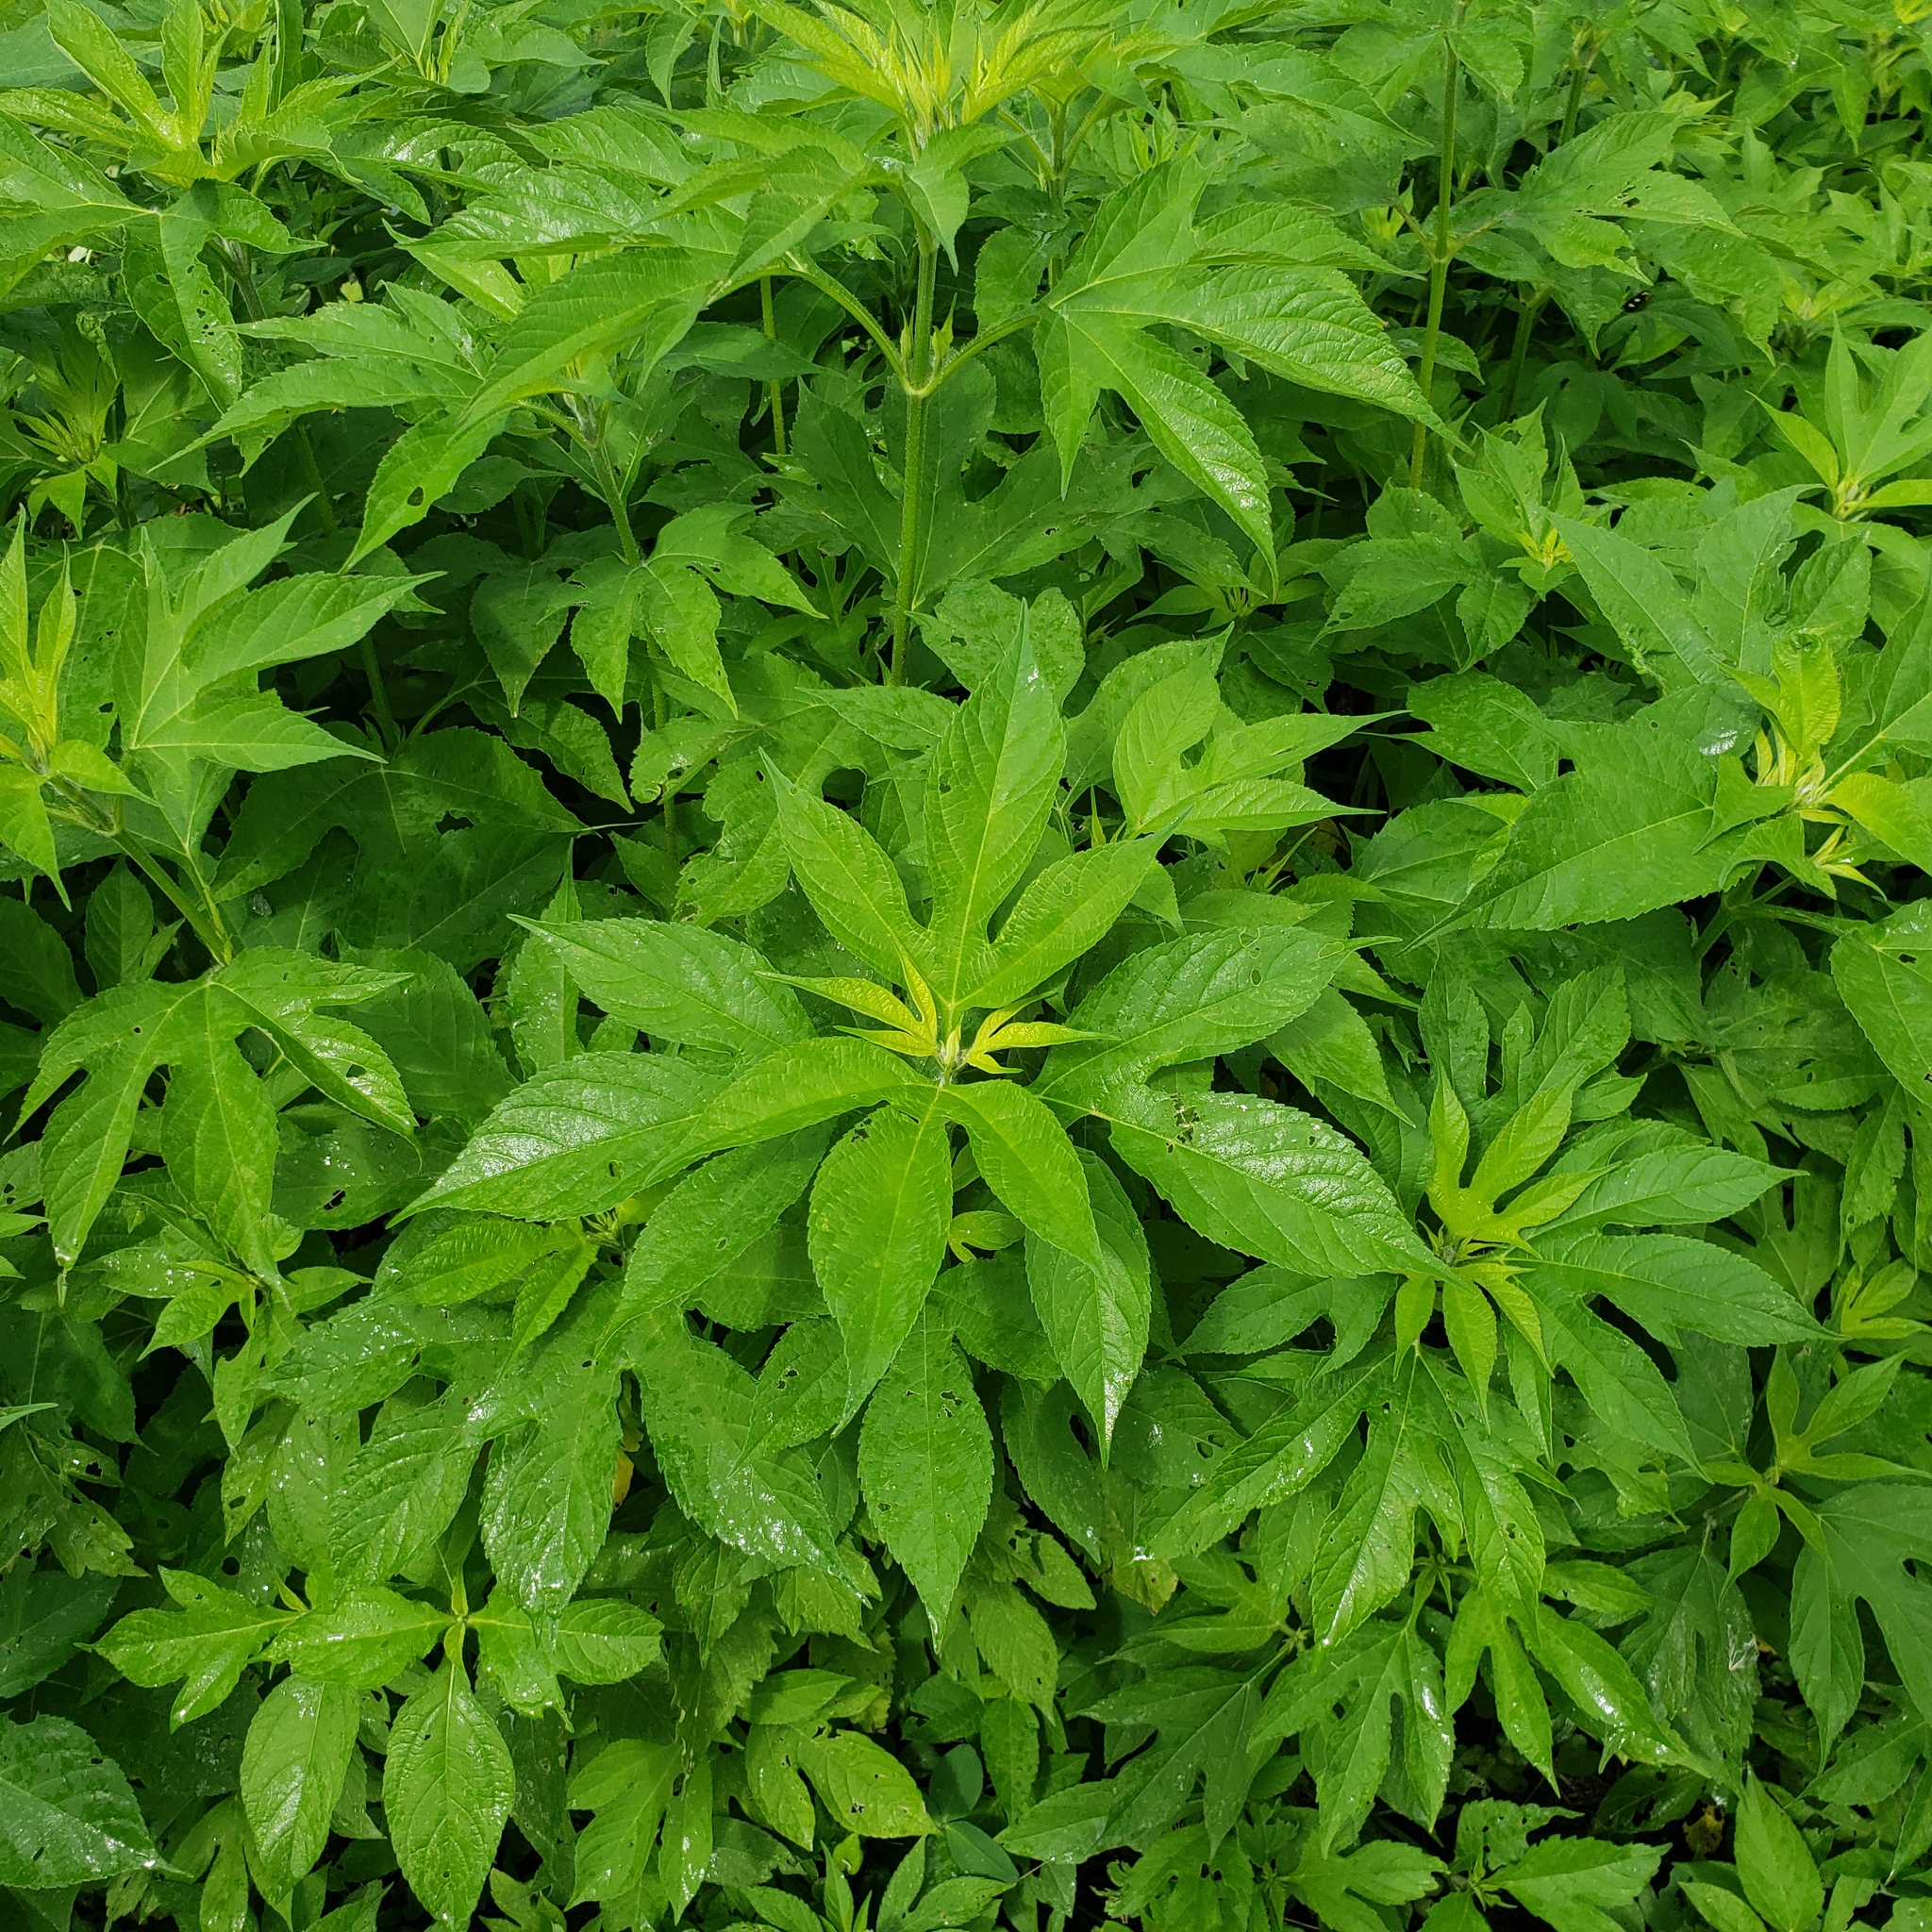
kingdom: Plantae
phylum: Tracheophyta
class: Magnoliopsida
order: Asterales
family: Asteraceae
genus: Ambrosia
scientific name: Ambrosia trifida
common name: Giant ragweed
